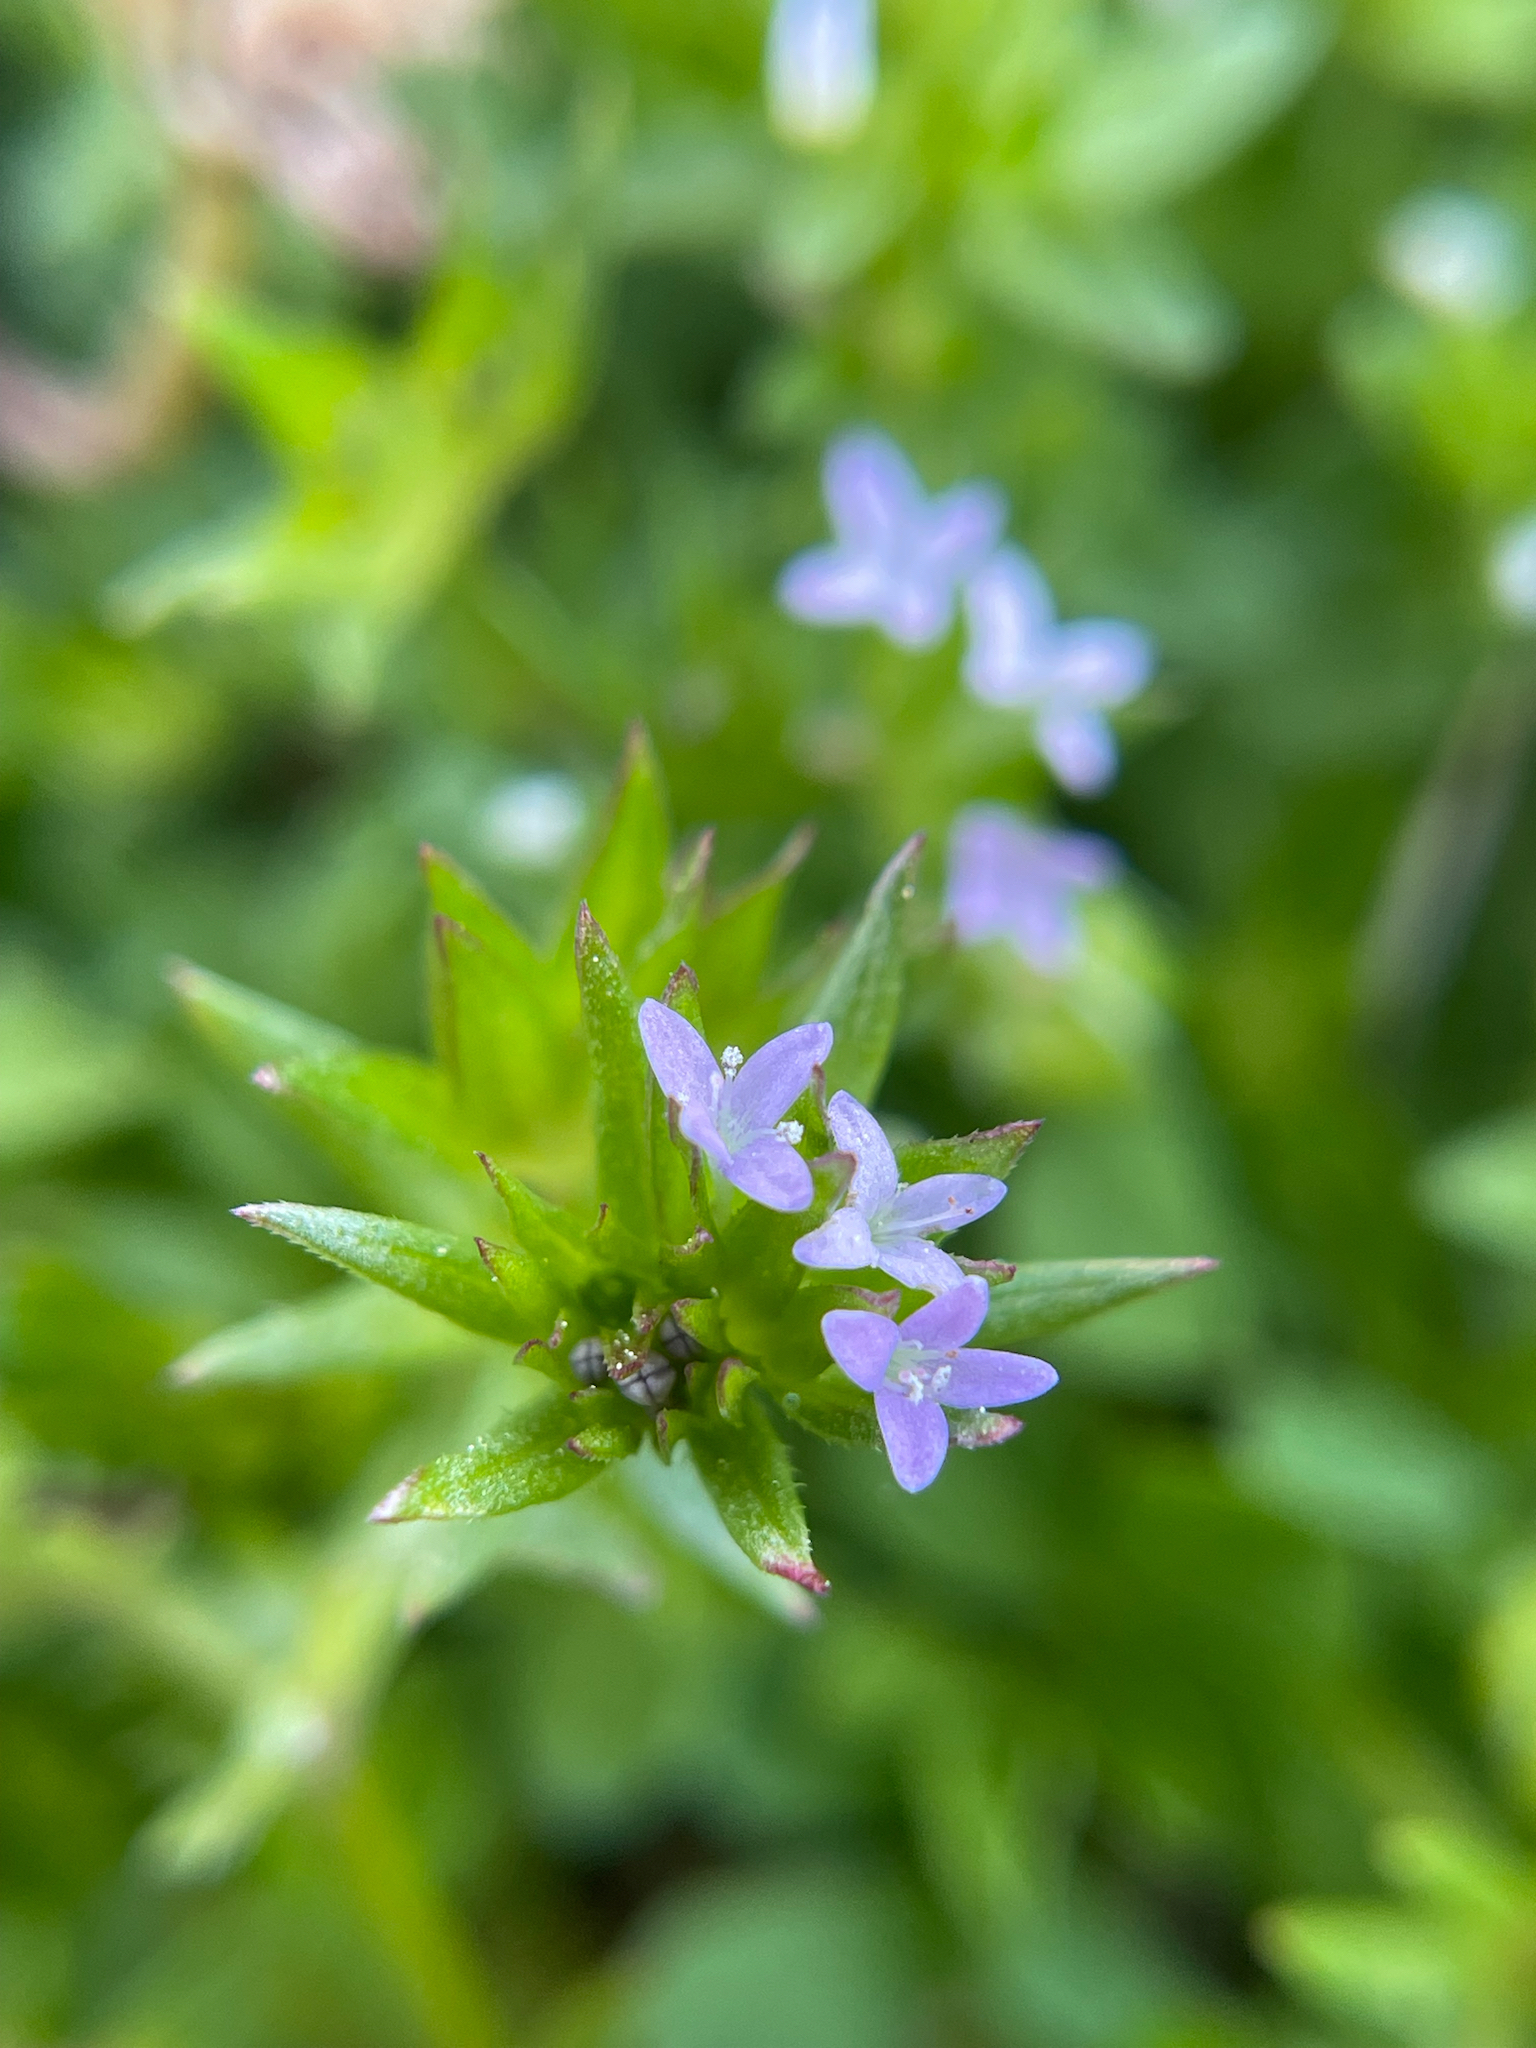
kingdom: Plantae
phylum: Tracheophyta
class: Magnoliopsida
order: Gentianales
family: Rubiaceae
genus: Sherardia
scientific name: Sherardia arvensis
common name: Field madder
